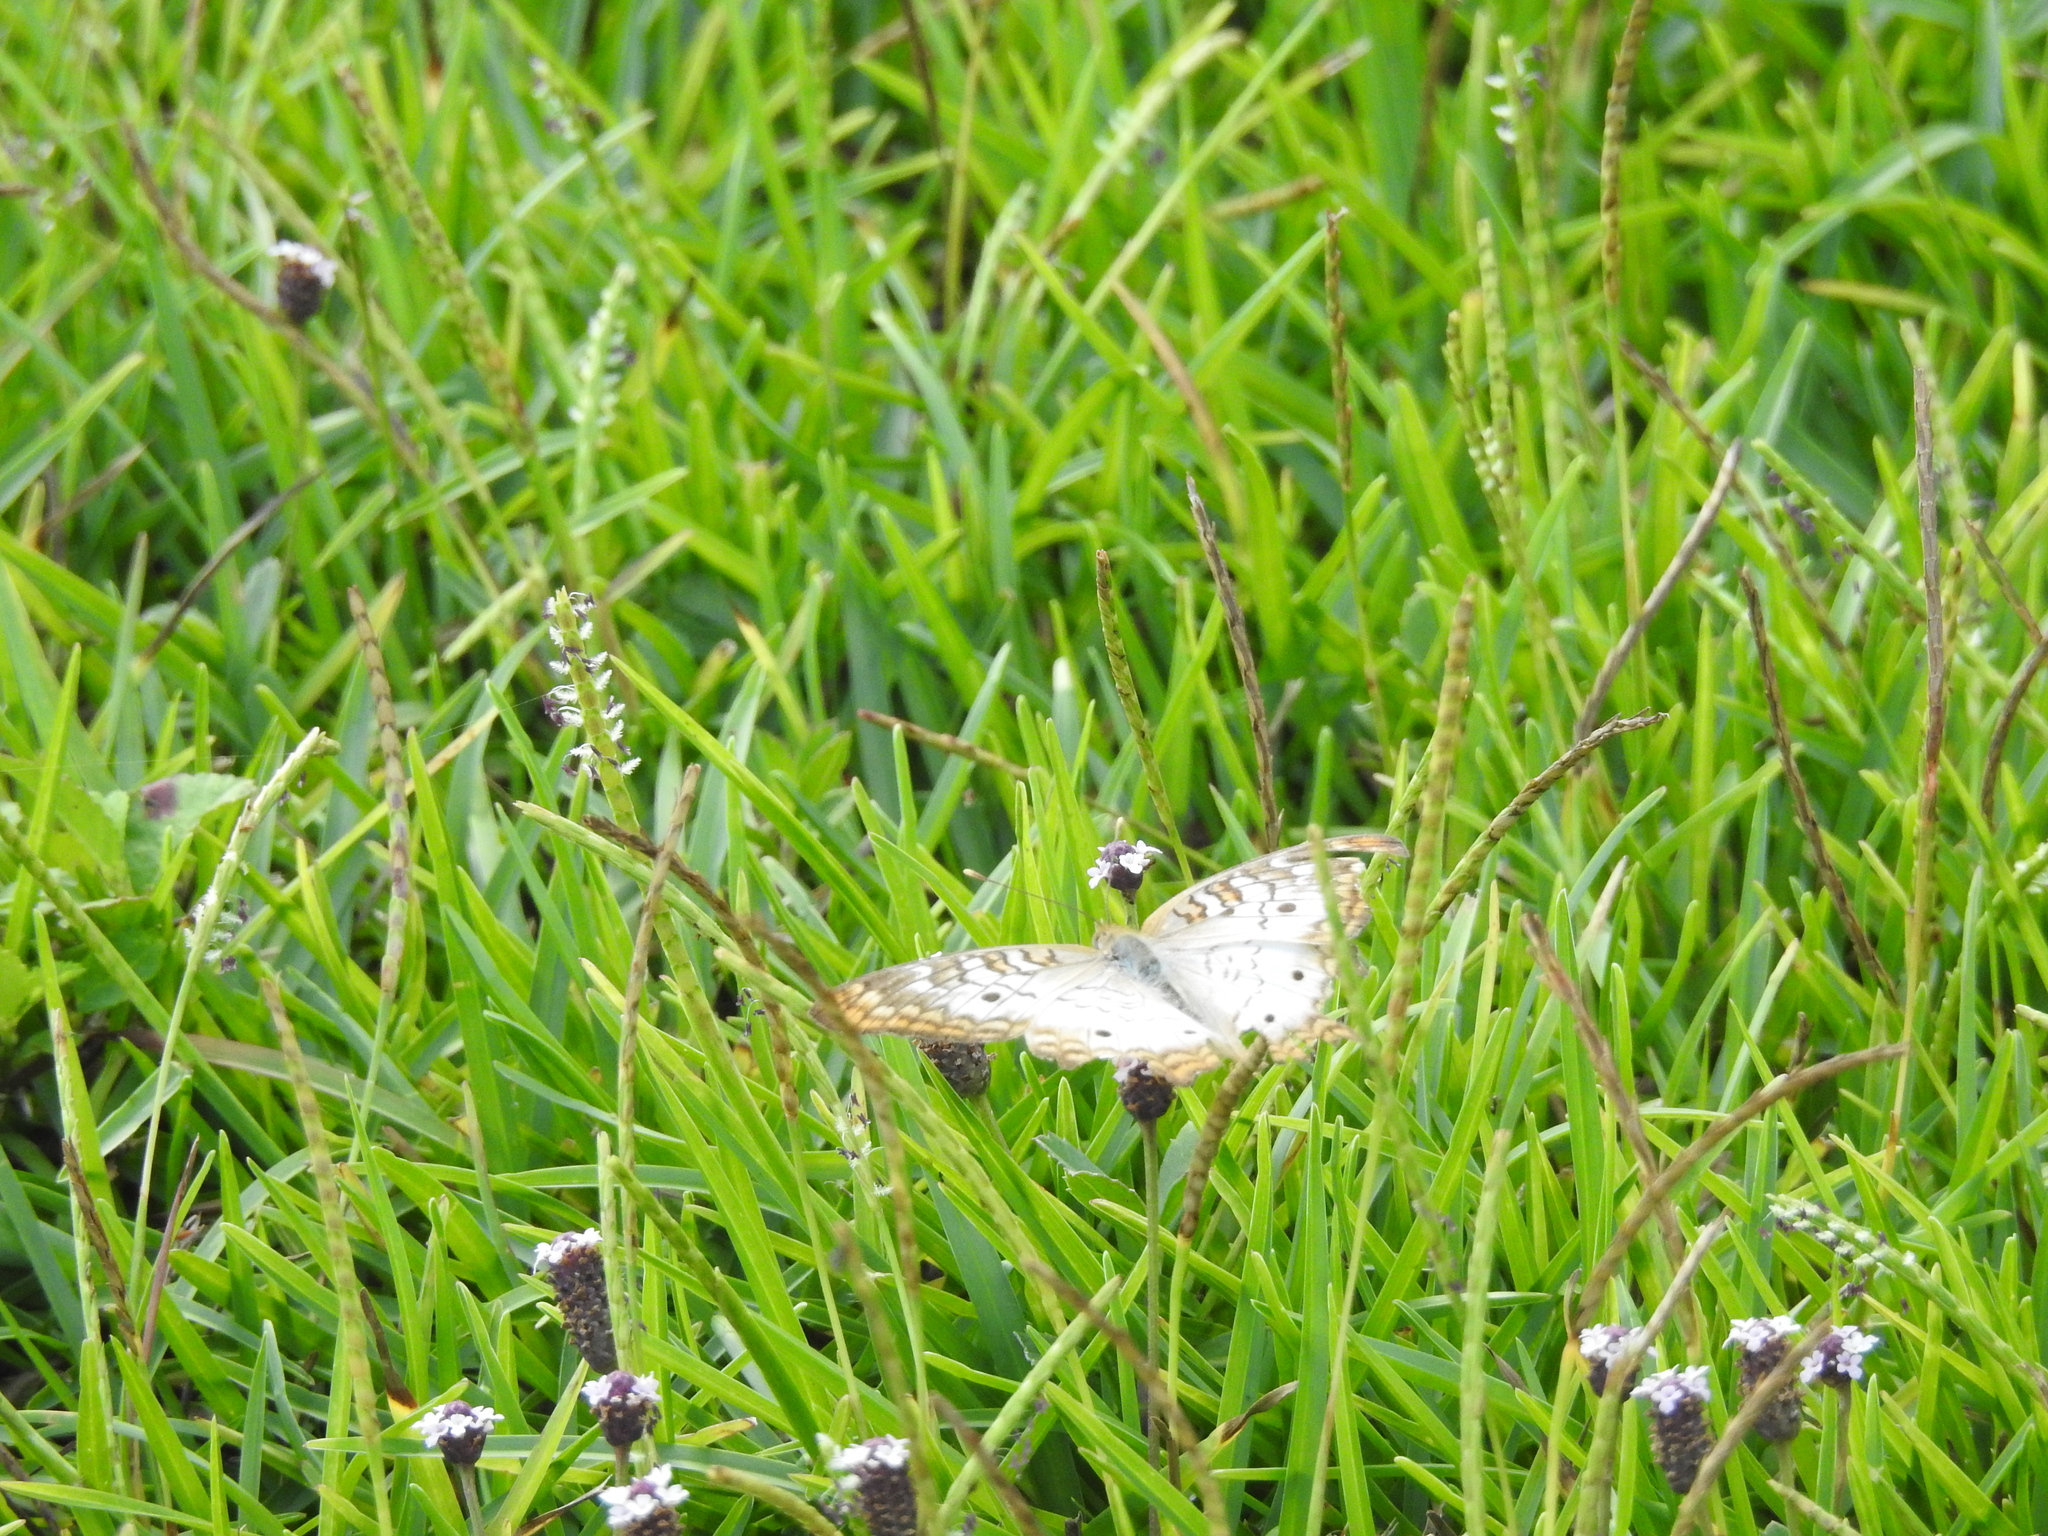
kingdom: Animalia
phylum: Arthropoda
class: Insecta
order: Lepidoptera
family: Nymphalidae
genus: Anartia
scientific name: Anartia jatrophae
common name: White peacock
